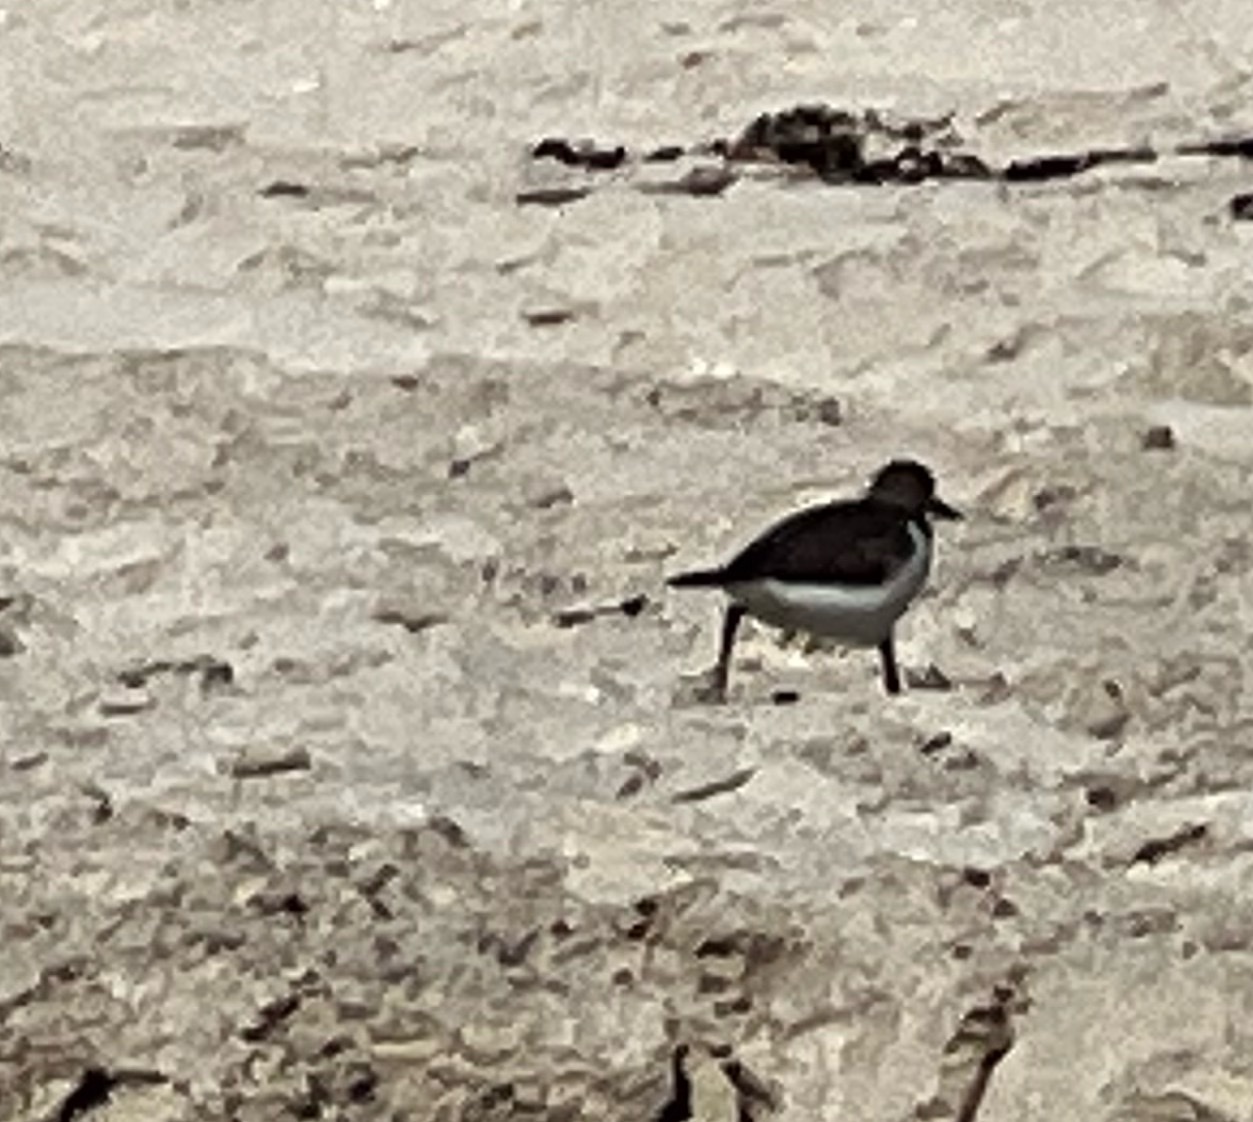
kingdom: Animalia
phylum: Chordata
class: Aves
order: Charadriiformes
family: Scolopacidae
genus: Actitis
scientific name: Actitis hypoleucos
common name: Common sandpiper
